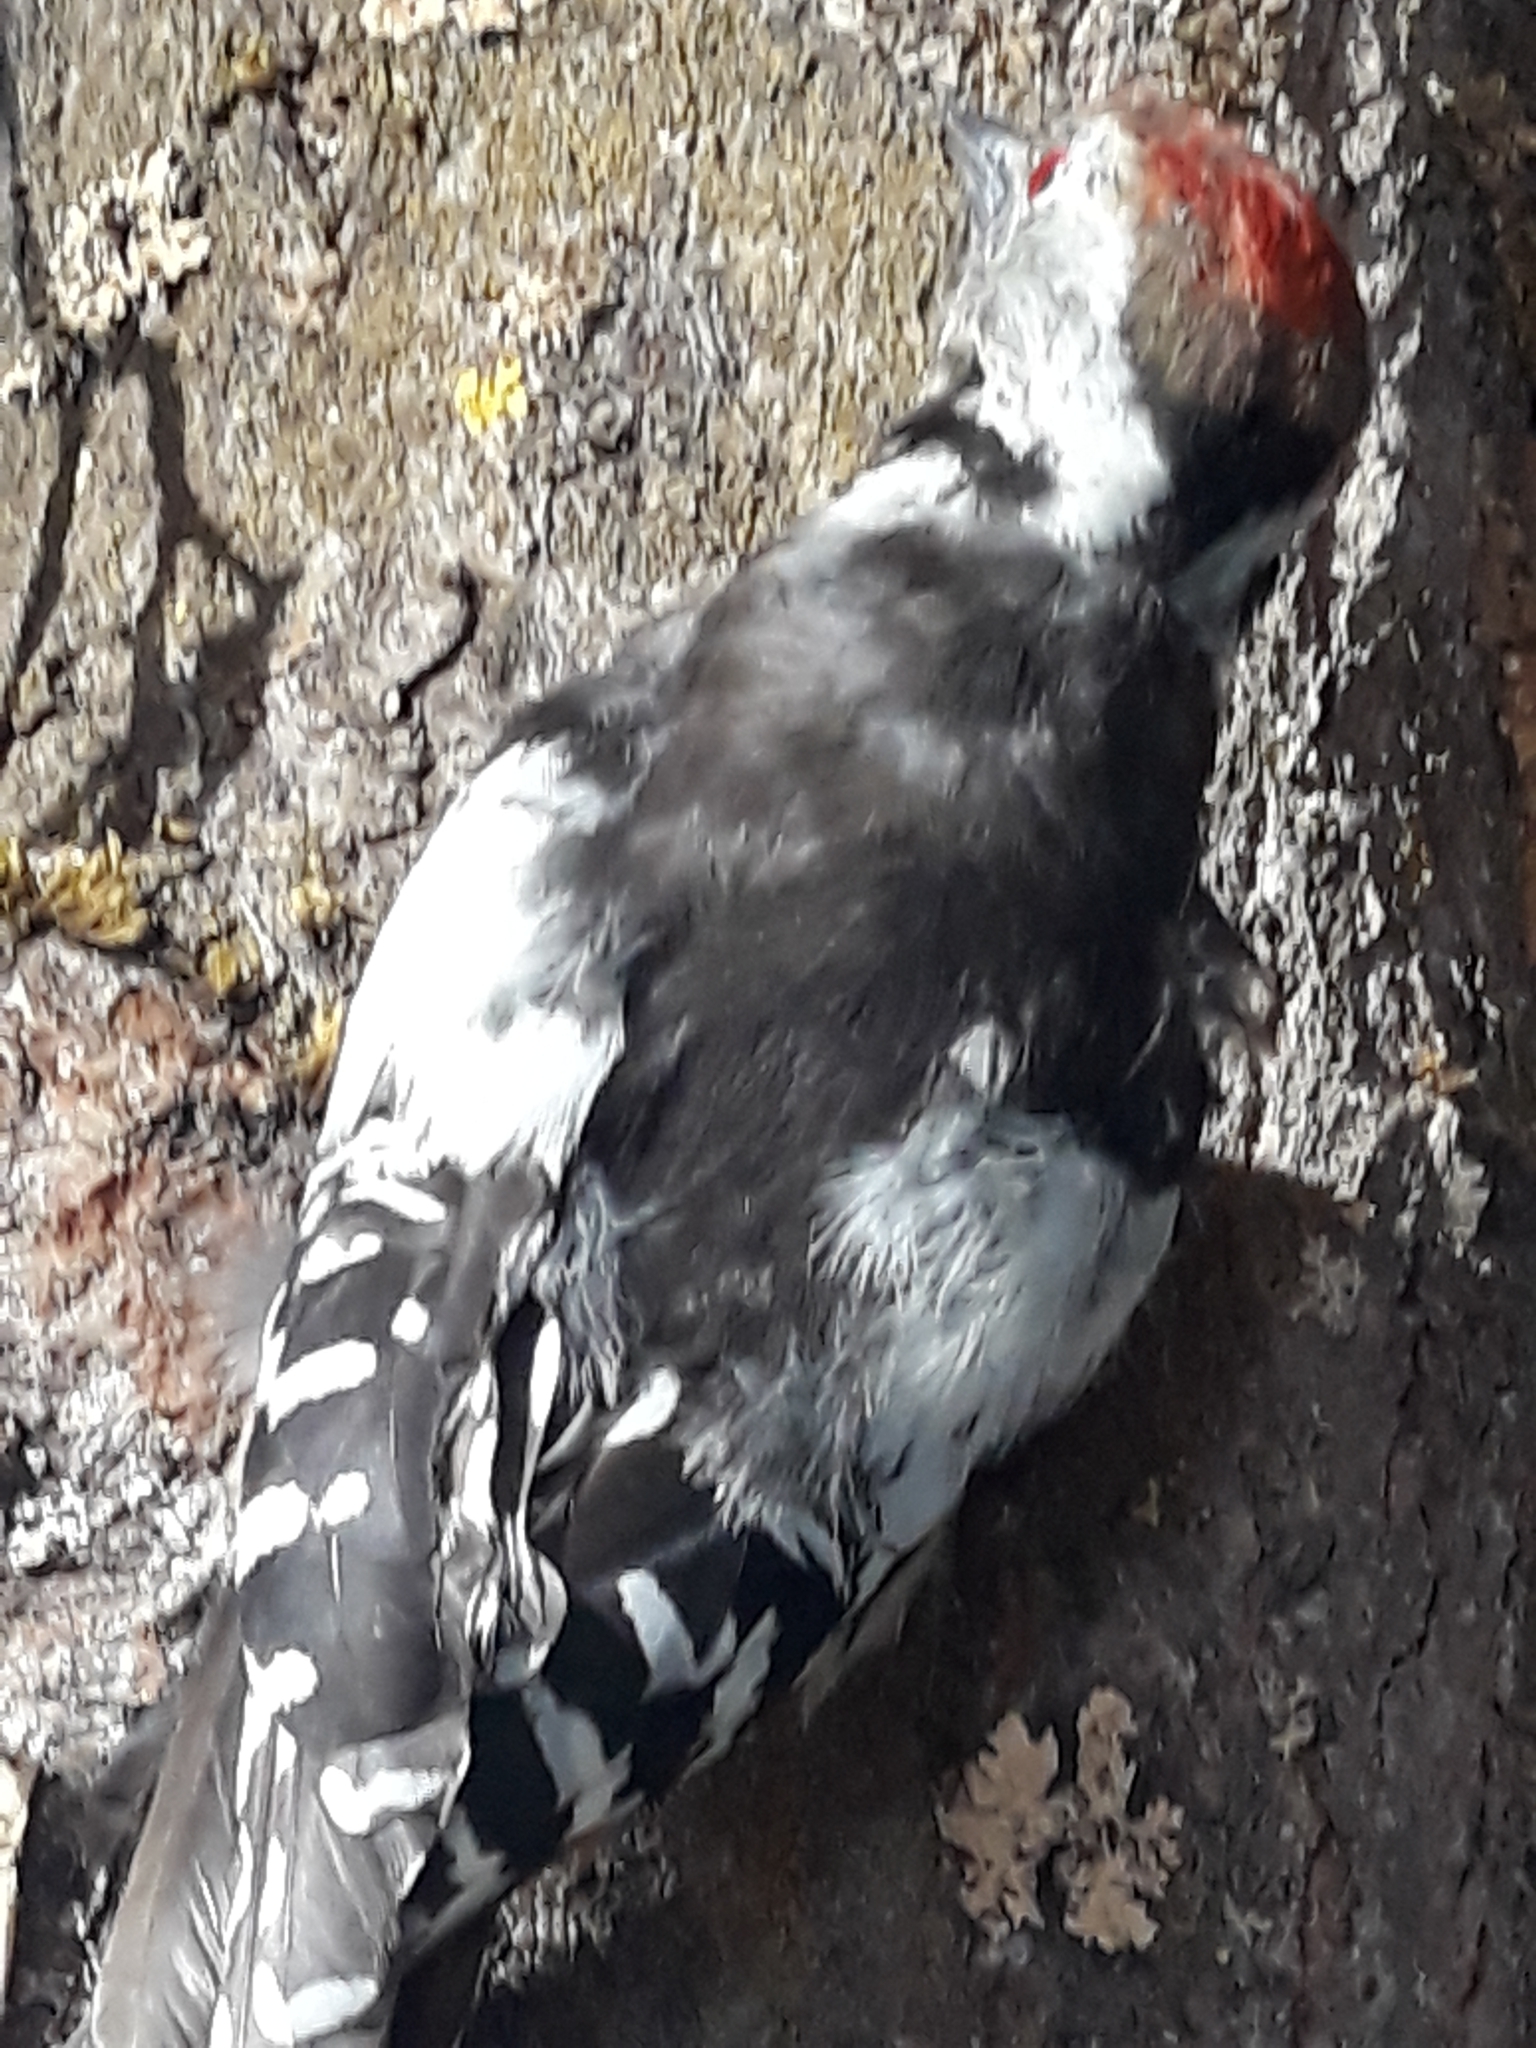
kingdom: Animalia
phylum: Chordata
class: Aves
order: Piciformes
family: Picidae
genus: Dendrocoptes
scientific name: Dendrocoptes medius
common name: Middle spotted woodpecker
